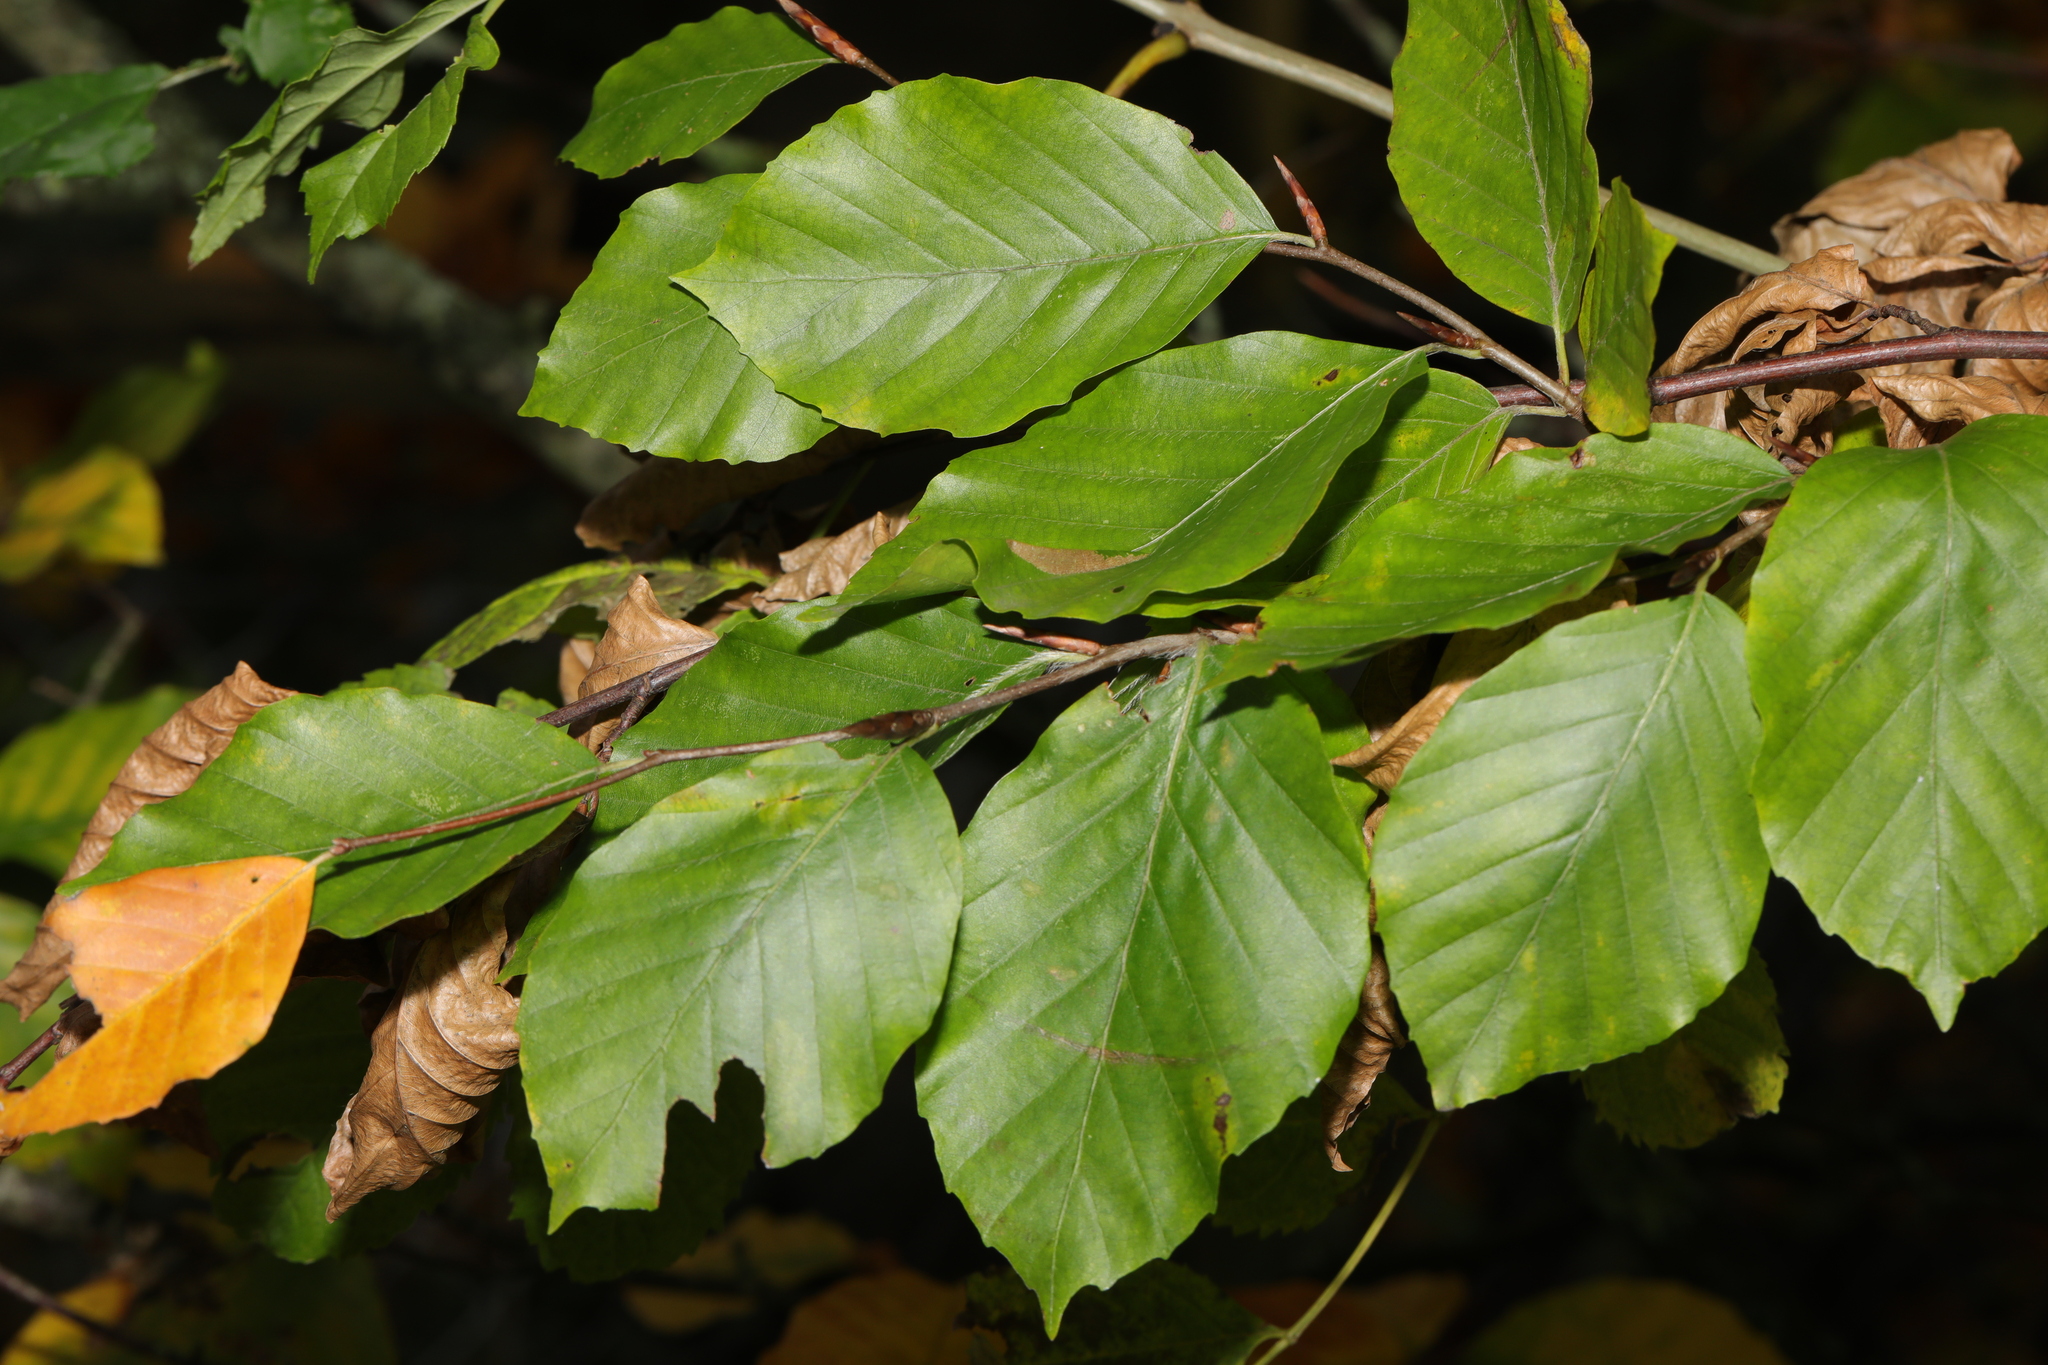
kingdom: Plantae
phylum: Tracheophyta
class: Magnoliopsida
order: Fagales
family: Fagaceae
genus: Fagus
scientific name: Fagus sylvatica
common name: Beech
